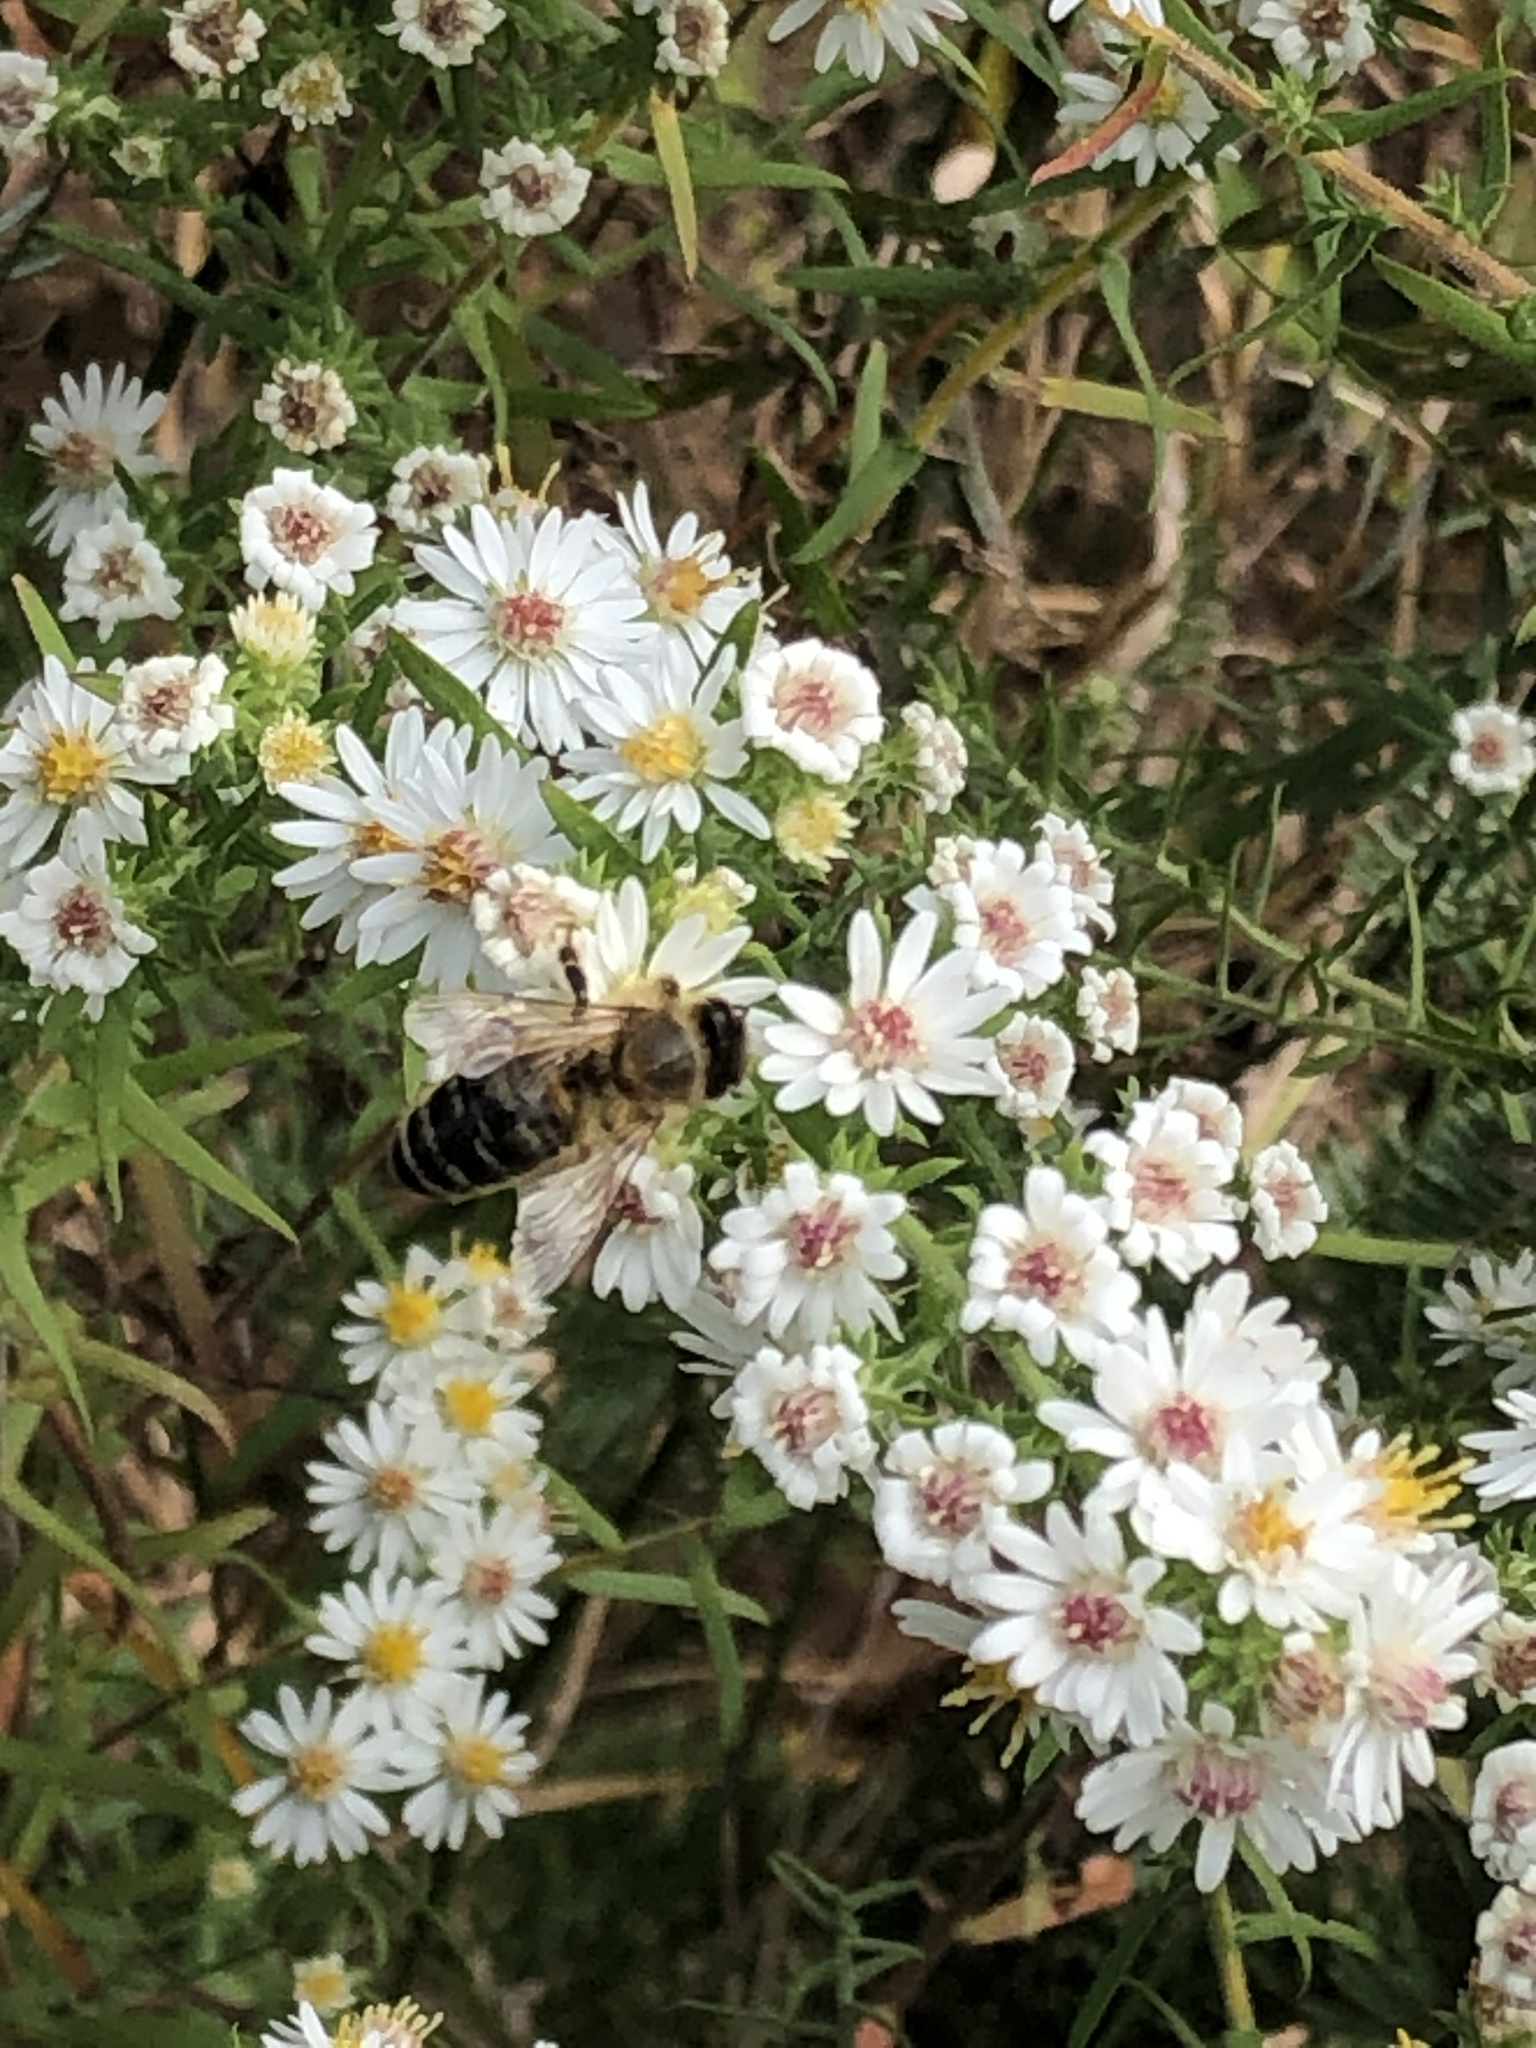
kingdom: Animalia
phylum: Arthropoda
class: Insecta
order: Hymenoptera
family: Apidae
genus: Apis
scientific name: Apis mellifera
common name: Honey bee
